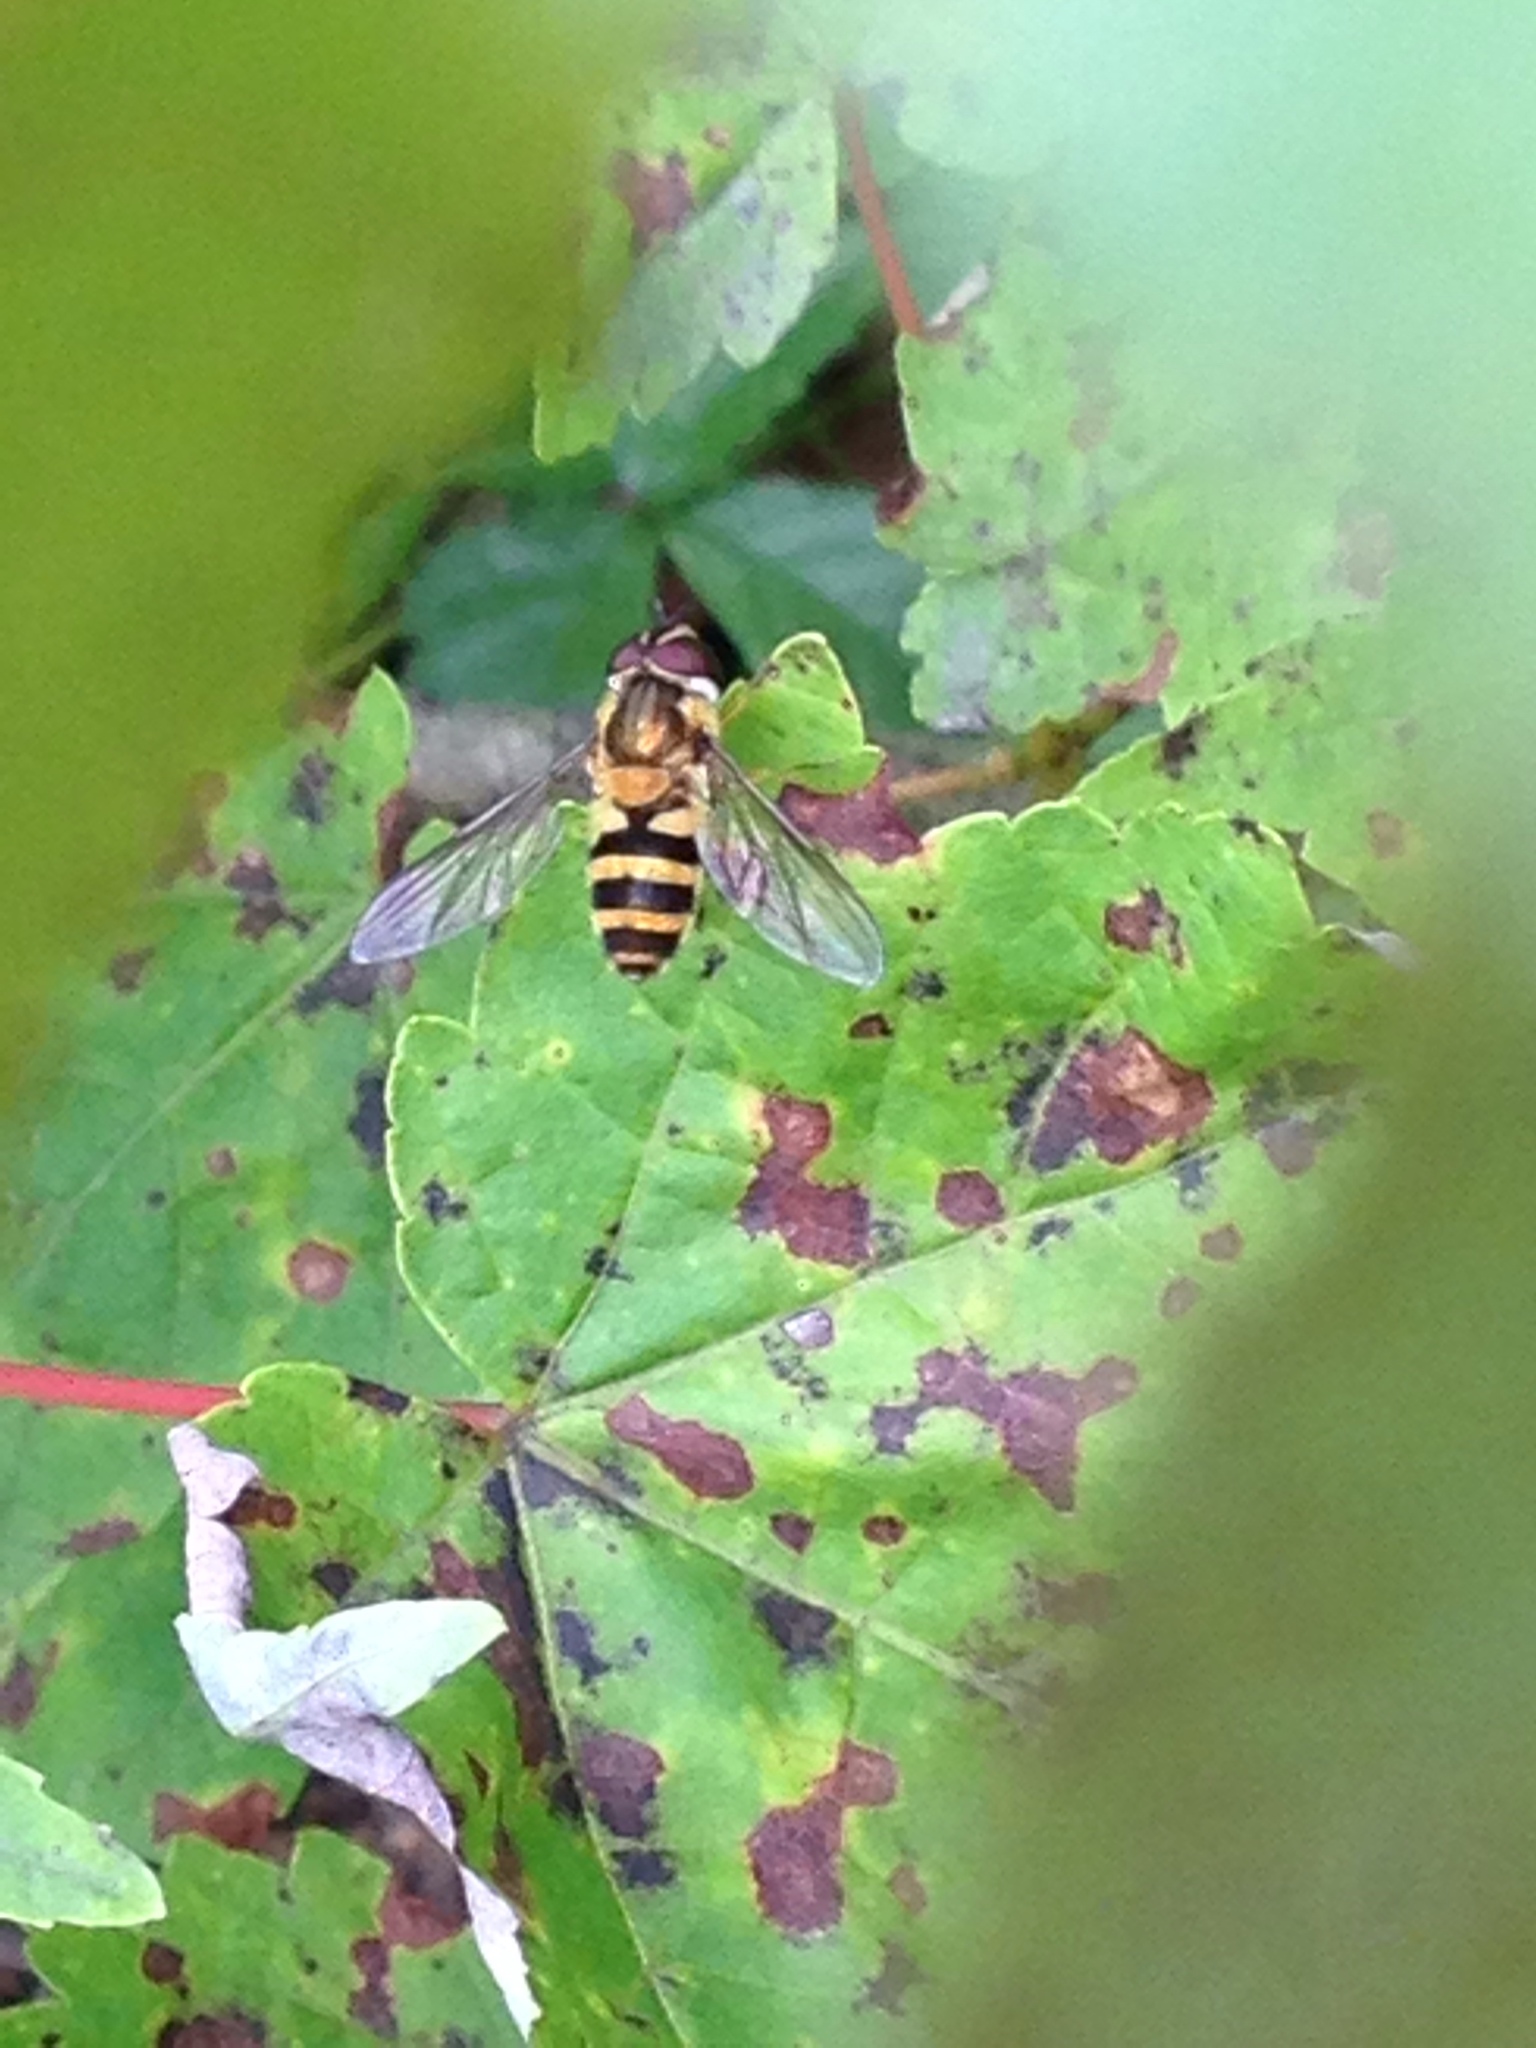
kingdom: Animalia
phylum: Arthropoda
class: Insecta
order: Diptera
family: Syrphidae
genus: Epistrophe
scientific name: Epistrophe grossulariae
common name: Black-horned smoothtail
